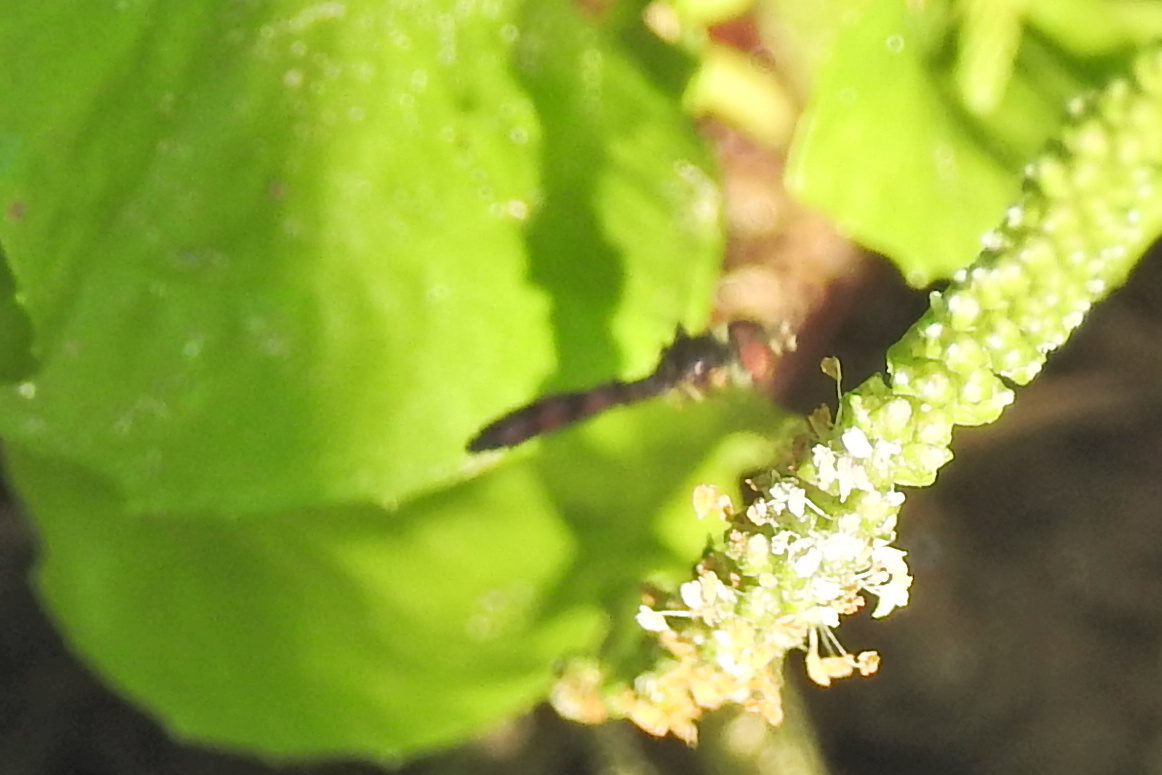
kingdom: Animalia
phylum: Arthropoda
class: Insecta
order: Diptera
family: Syrphidae
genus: Ocyptamus
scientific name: Ocyptamus fuscipennis
